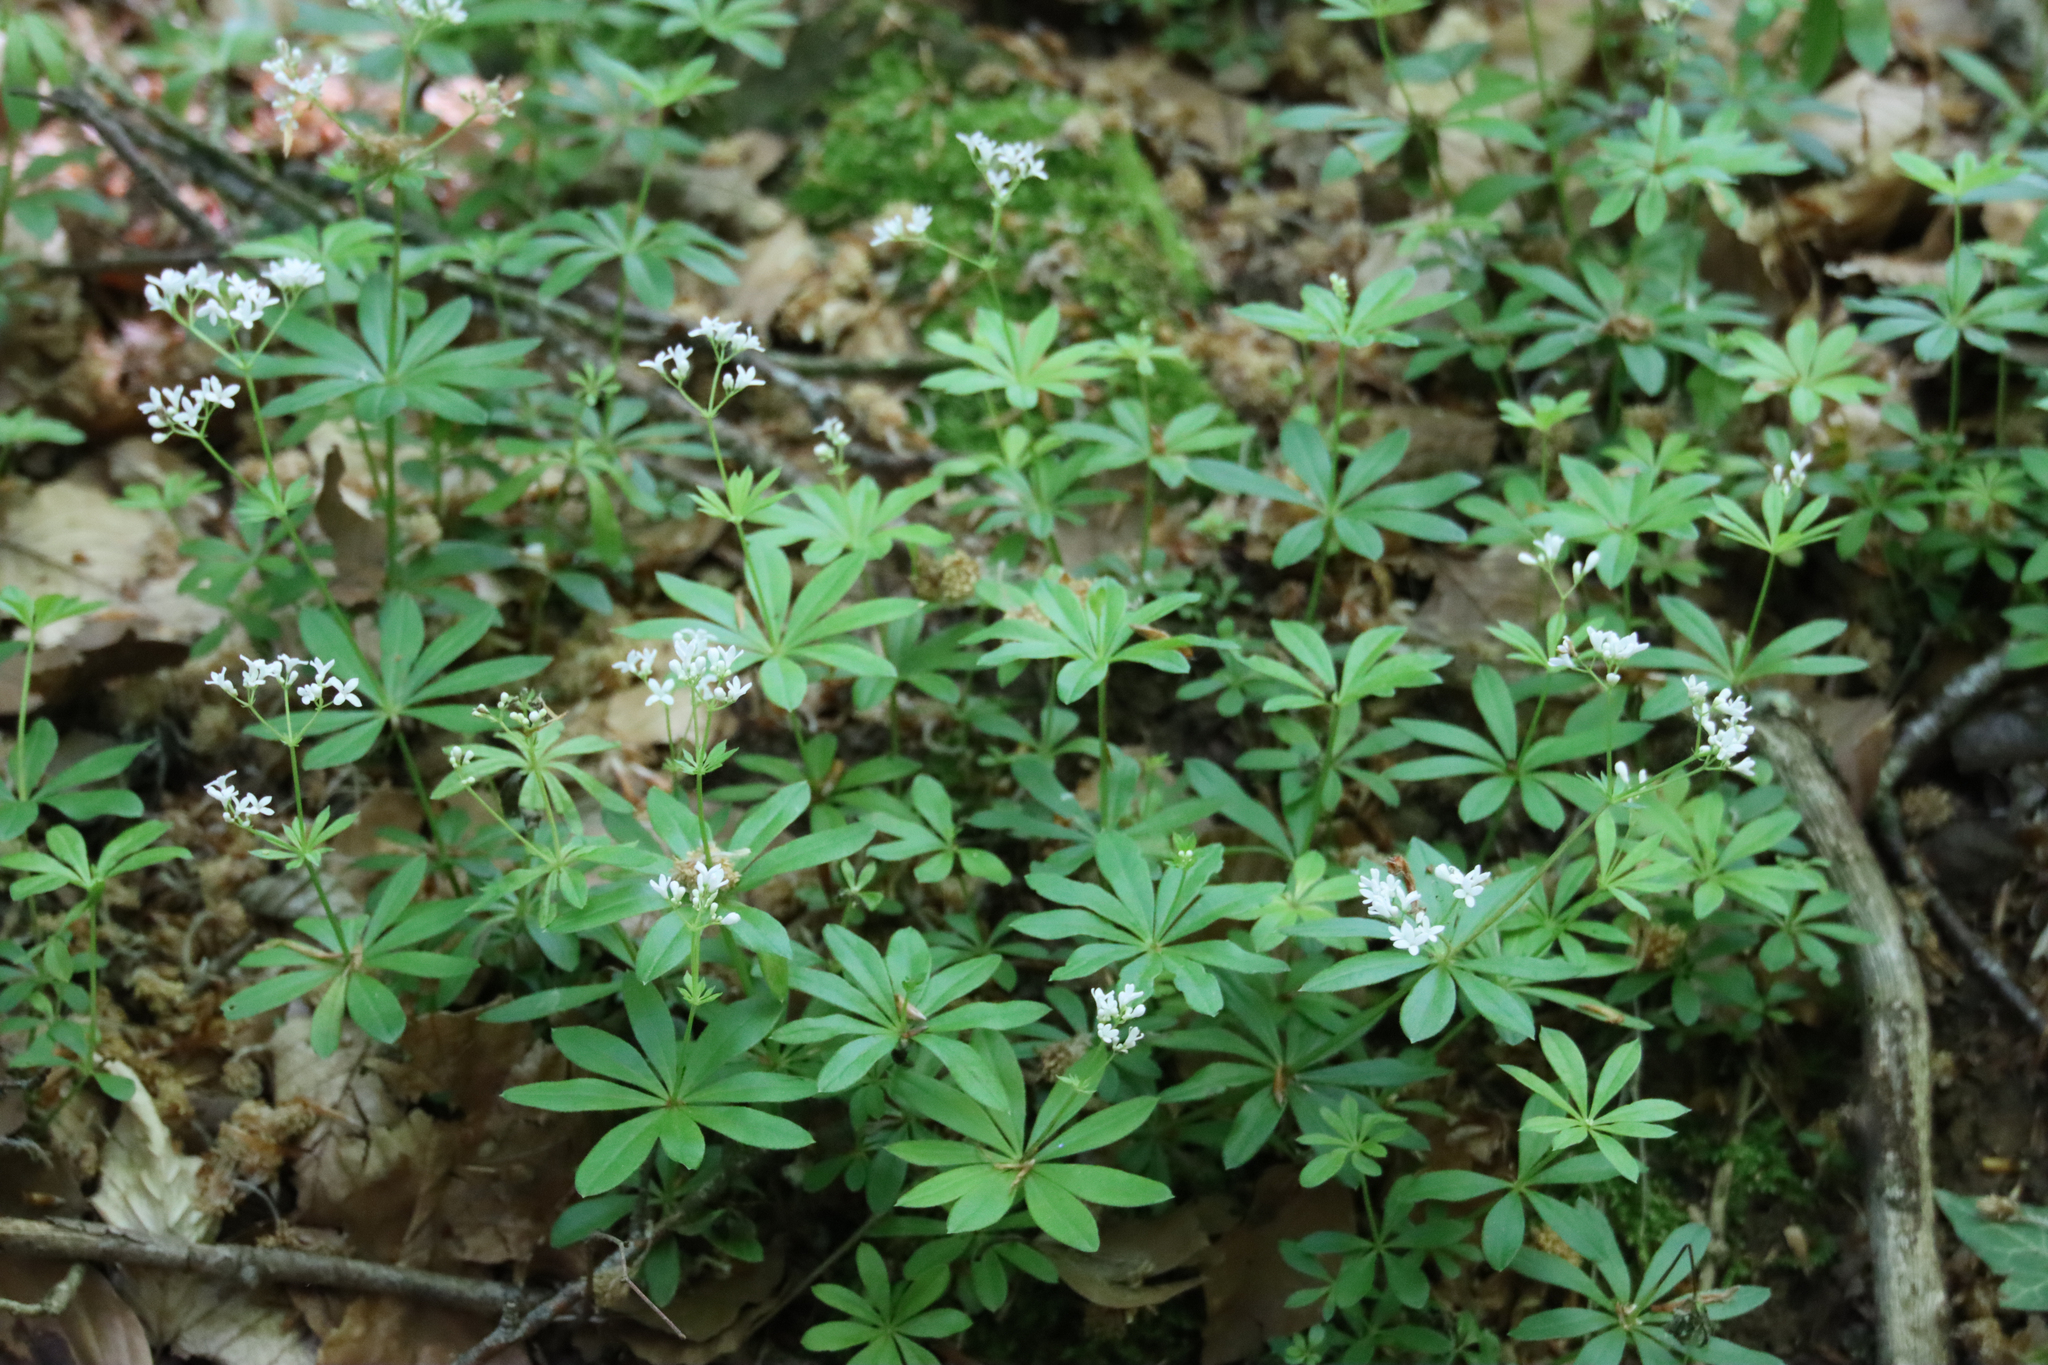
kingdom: Plantae
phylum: Tracheophyta
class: Magnoliopsida
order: Gentianales
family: Rubiaceae
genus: Galium
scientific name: Galium odoratum
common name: Sweet woodruff
